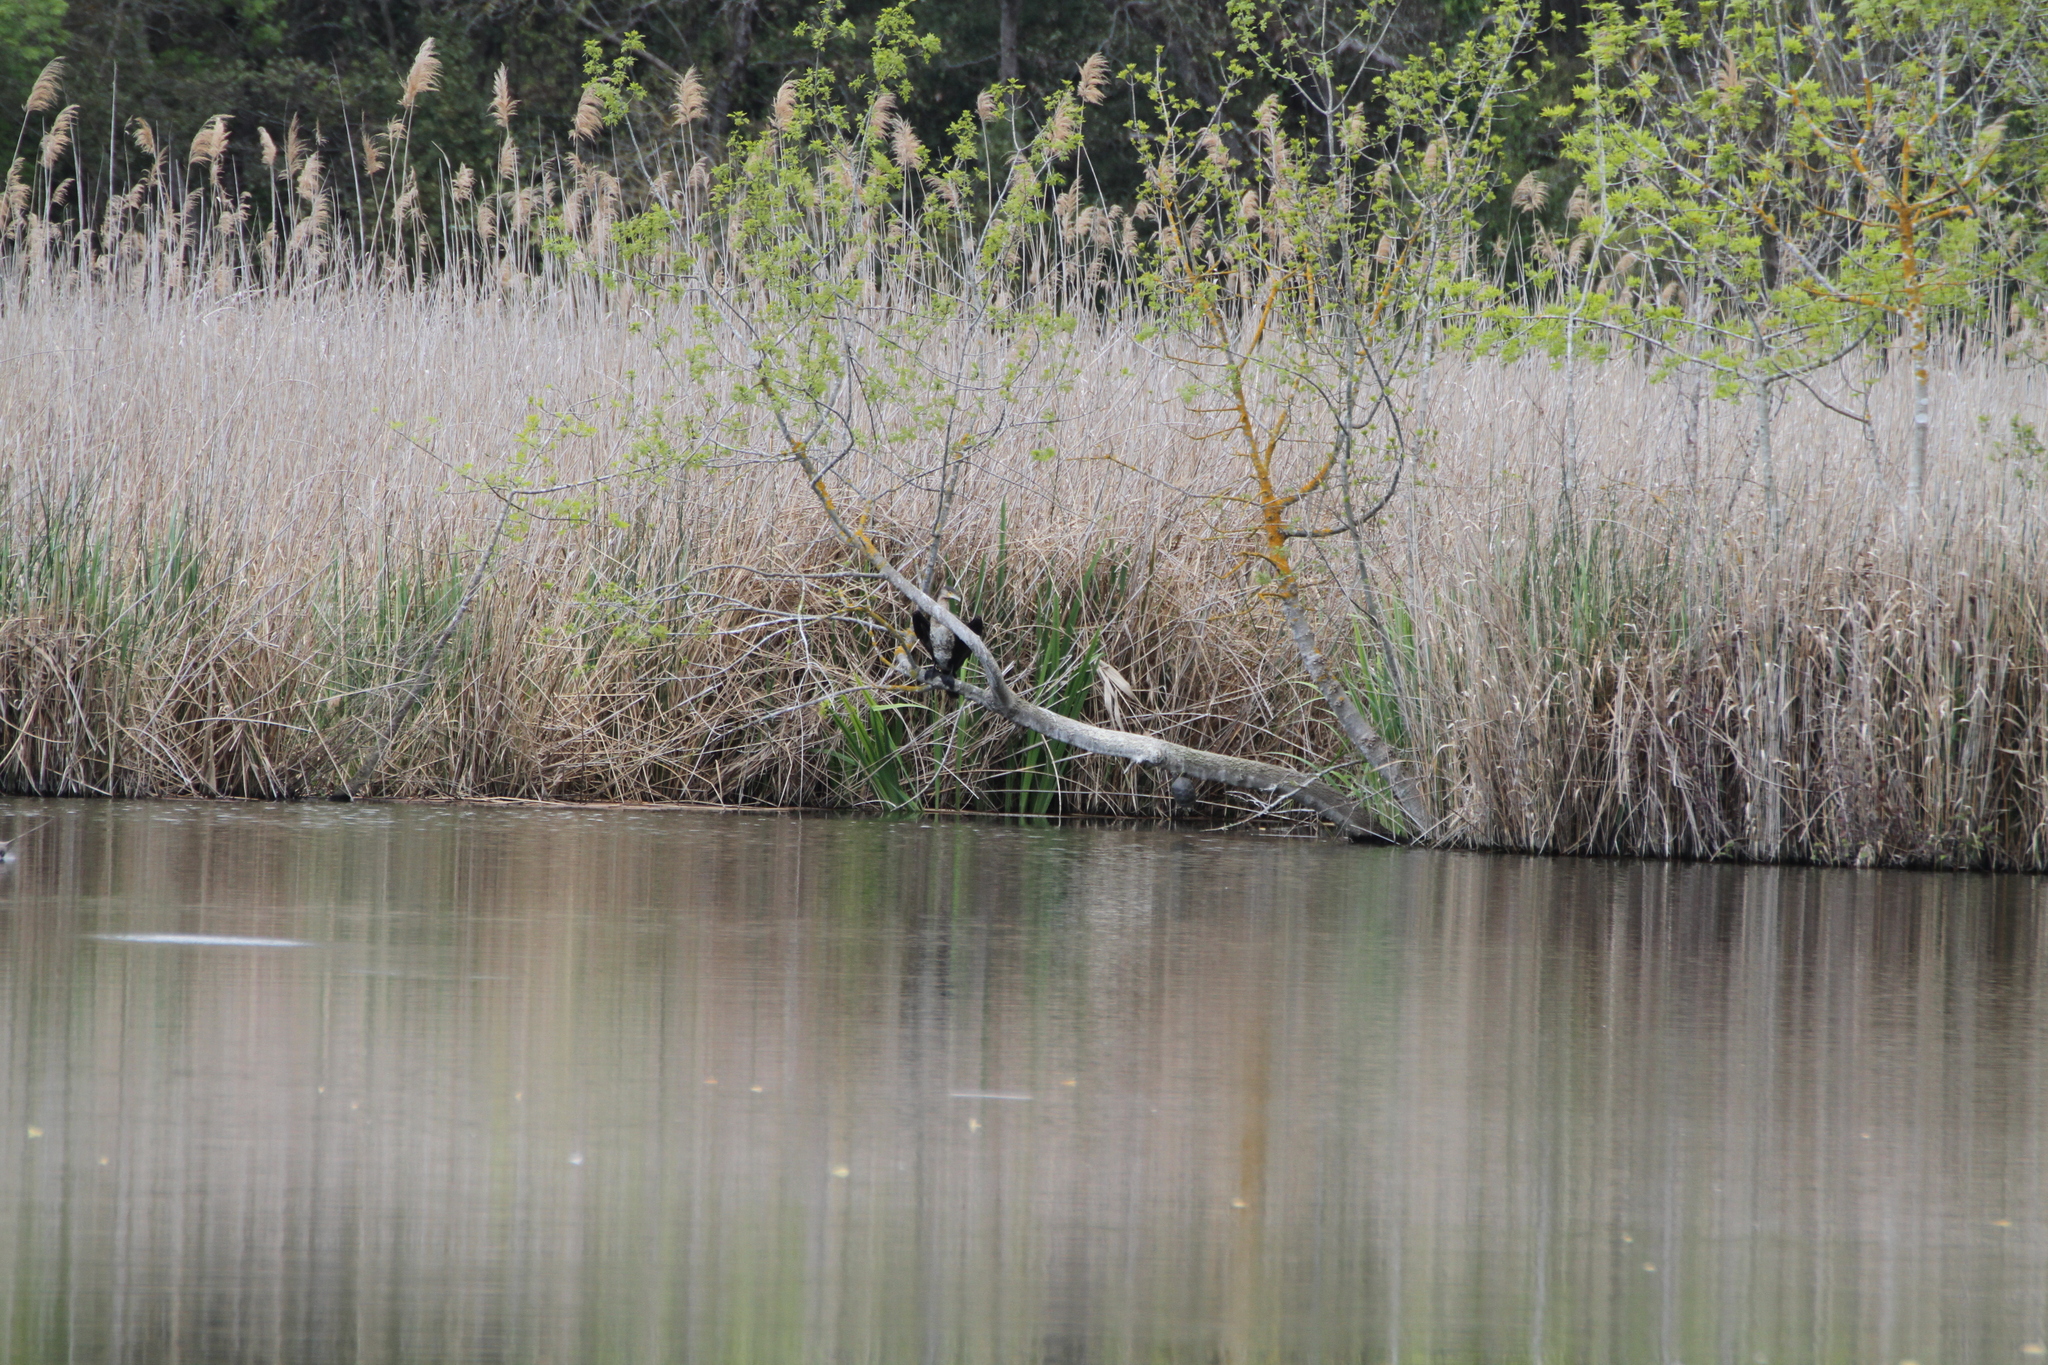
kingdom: Animalia
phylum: Chordata
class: Aves
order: Suliformes
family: Phalacrocoracidae
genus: Phalacrocorax
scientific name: Phalacrocorax carbo
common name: Great cormorant
